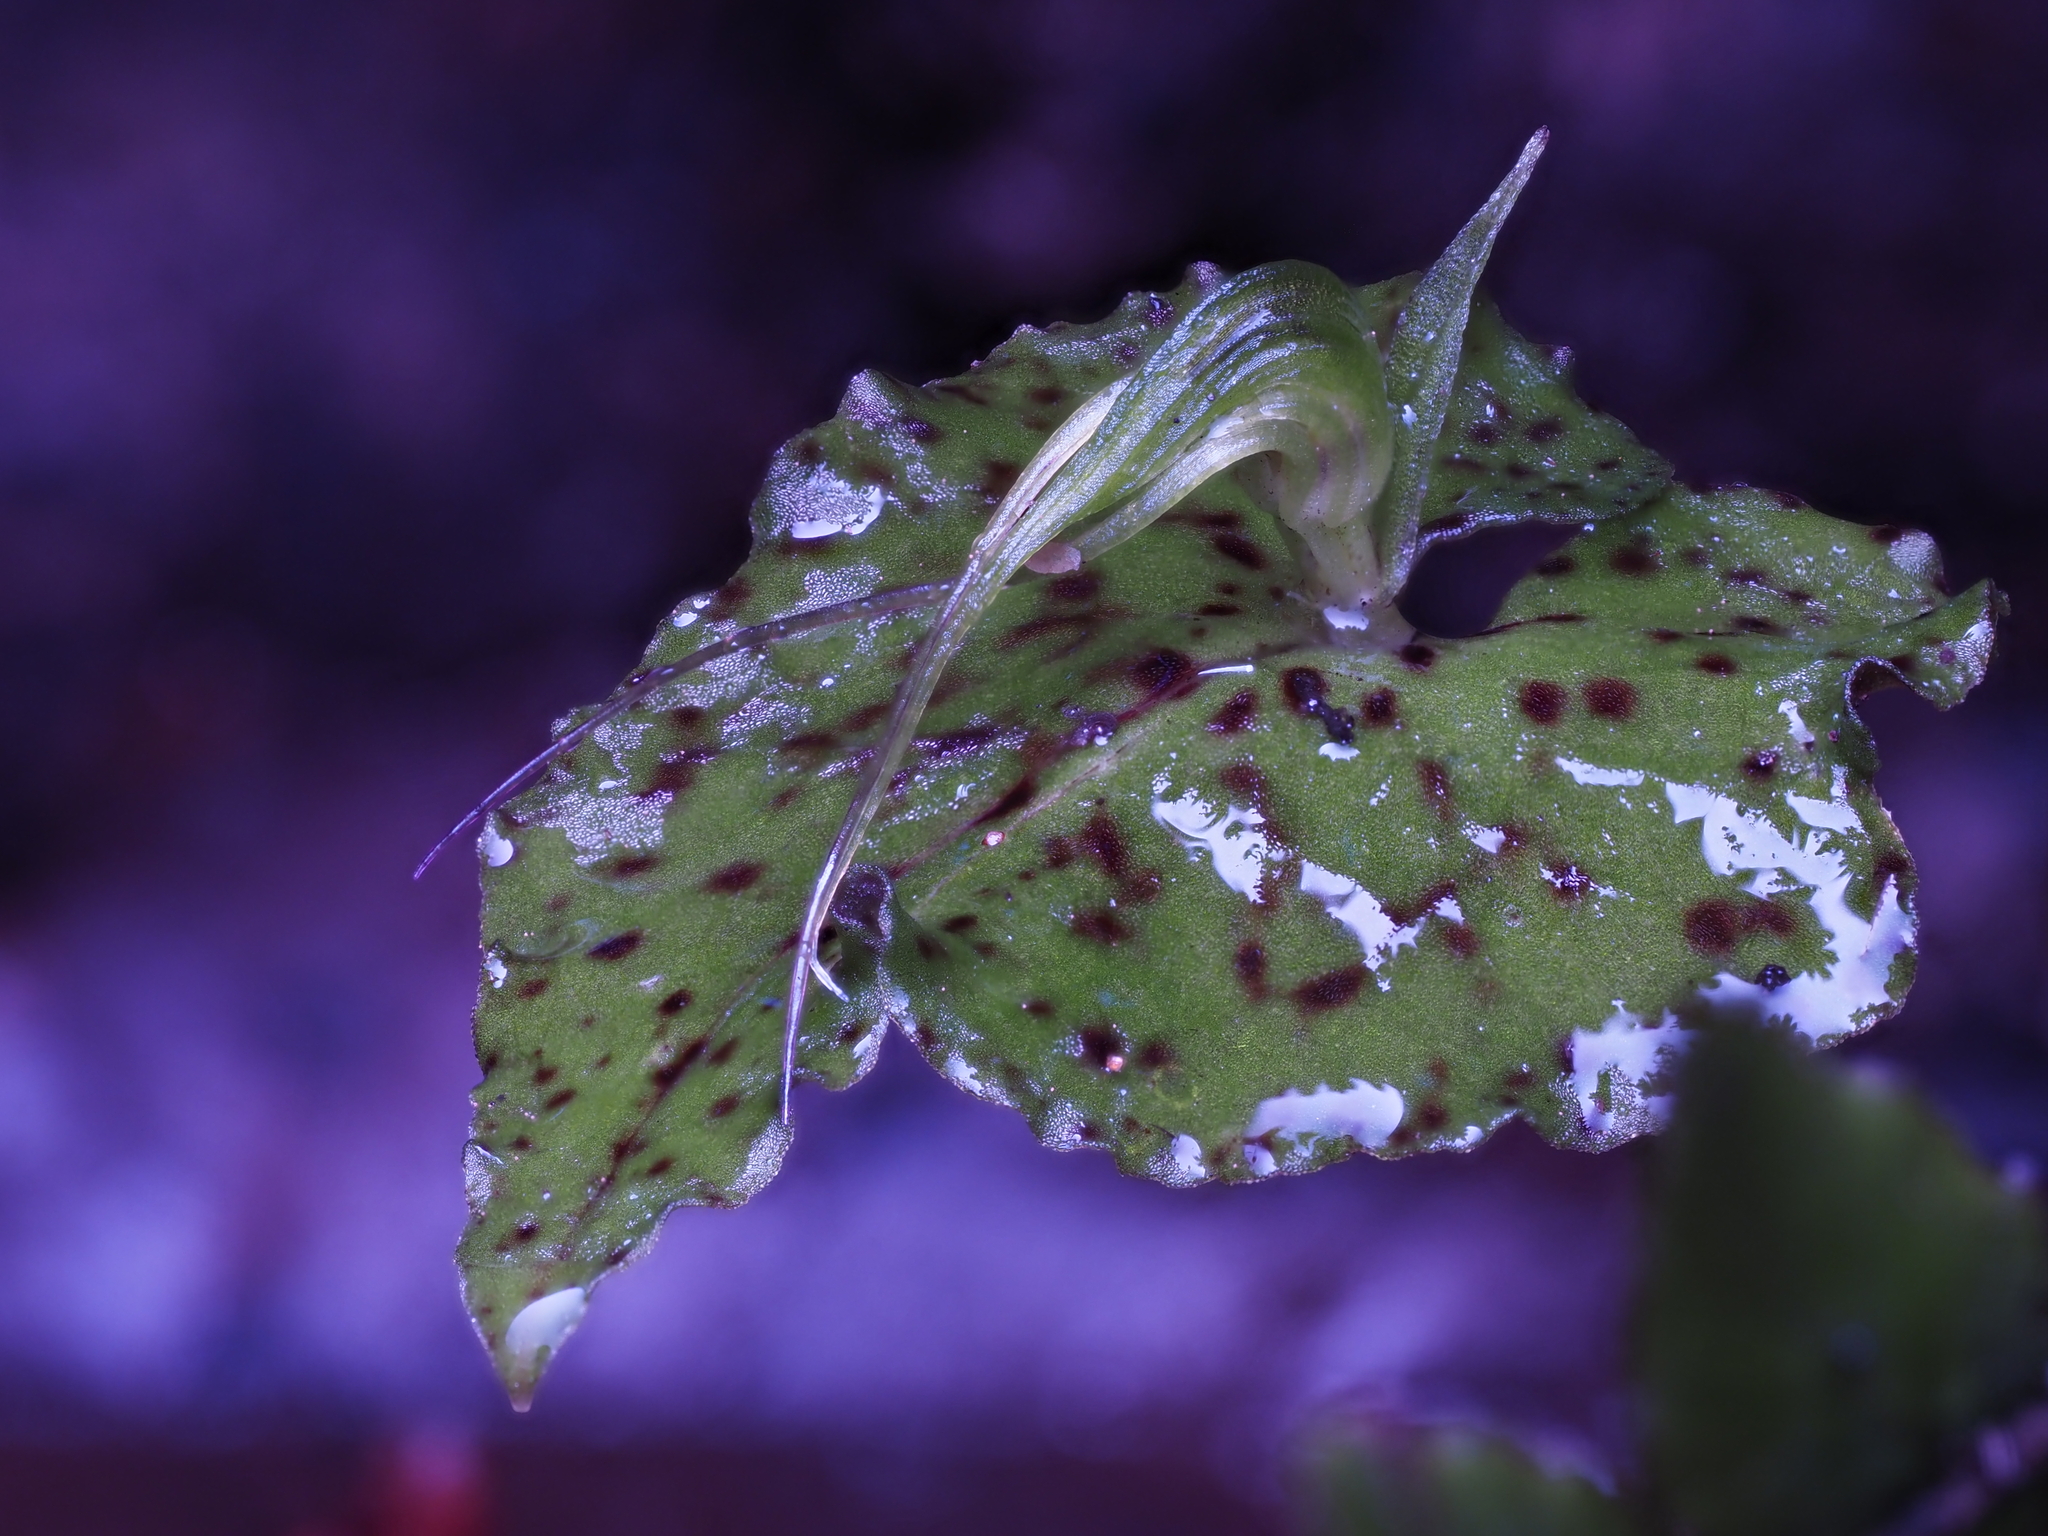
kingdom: Plantae
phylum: Tracheophyta
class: Liliopsida
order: Asparagales
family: Orchidaceae
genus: Corybas
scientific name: Corybas acuminatus
